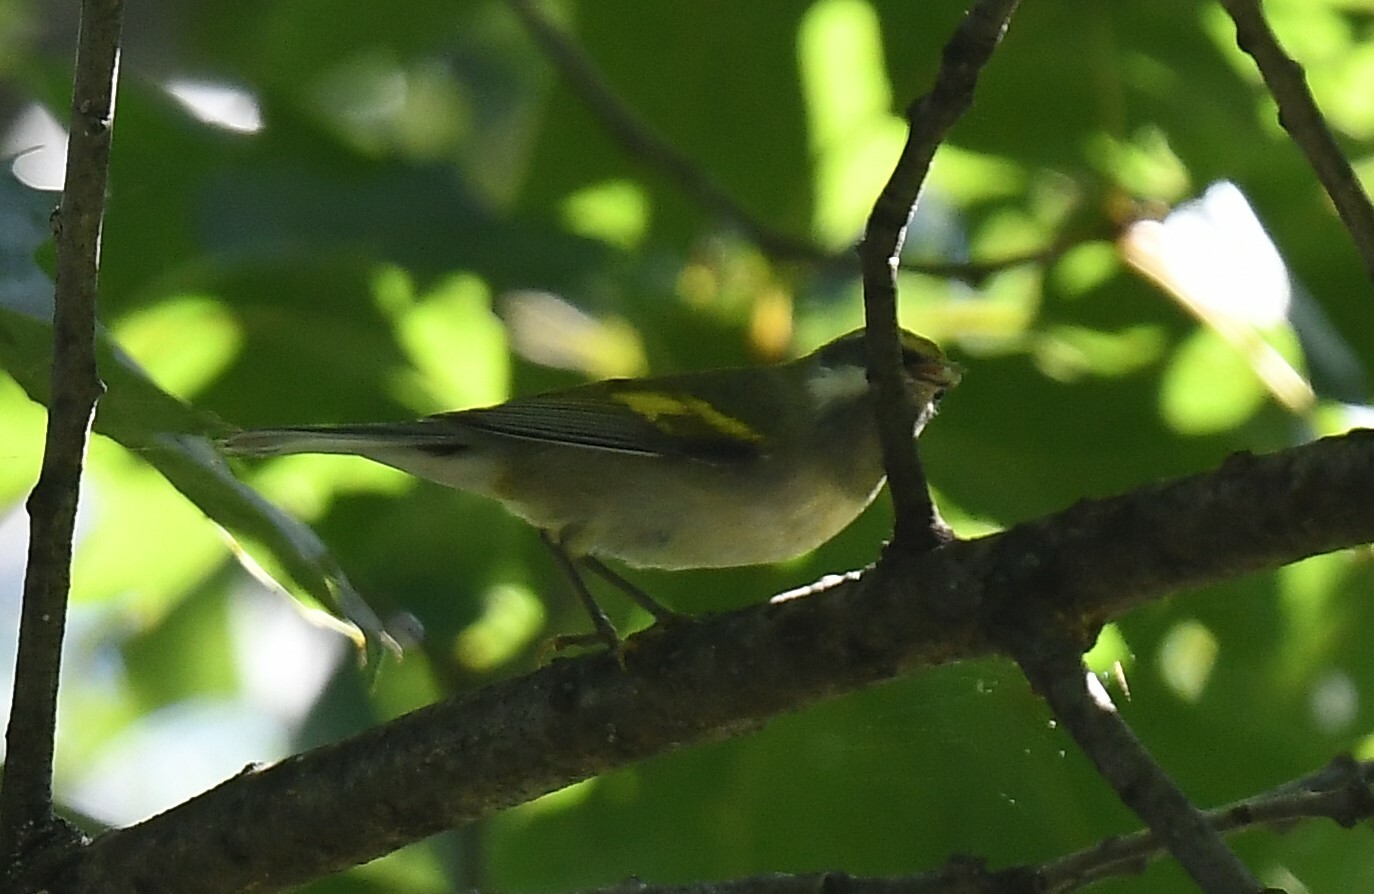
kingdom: Animalia
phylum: Chordata
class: Aves
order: Passeriformes
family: Parulidae
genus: Vermivora
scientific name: Vermivora chrysoptera
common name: Golden-winged warbler
